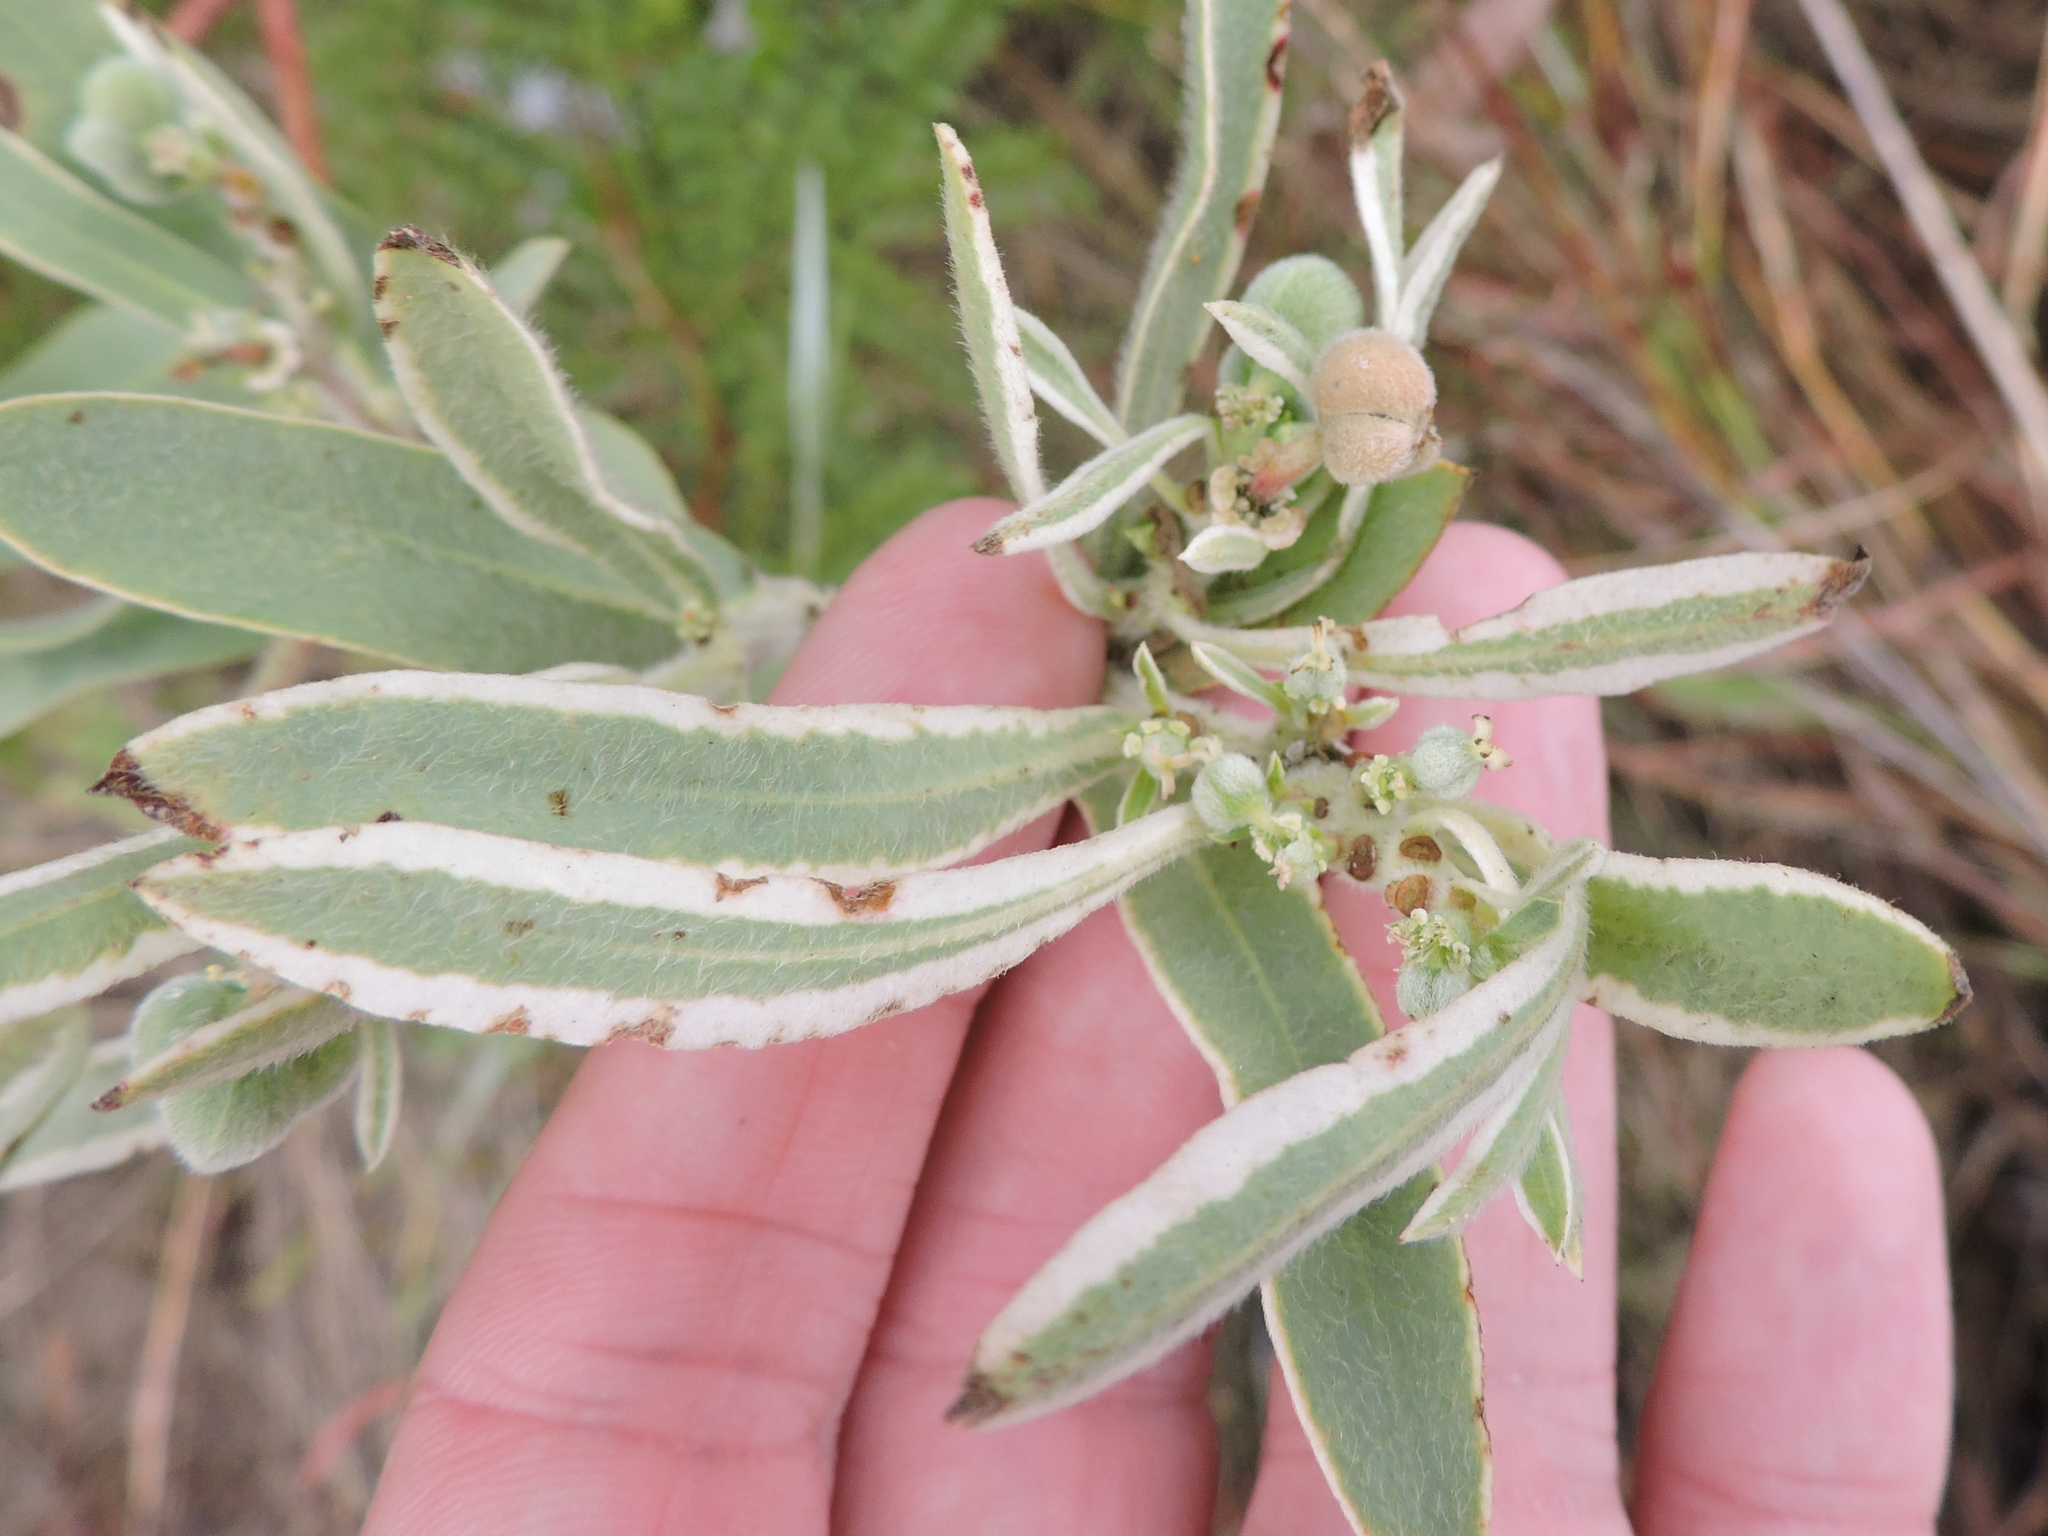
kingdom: Plantae
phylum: Tracheophyta
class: Magnoliopsida
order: Malpighiales
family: Euphorbiaceae
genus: Euphorbia
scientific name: Euphorbia bicolor
